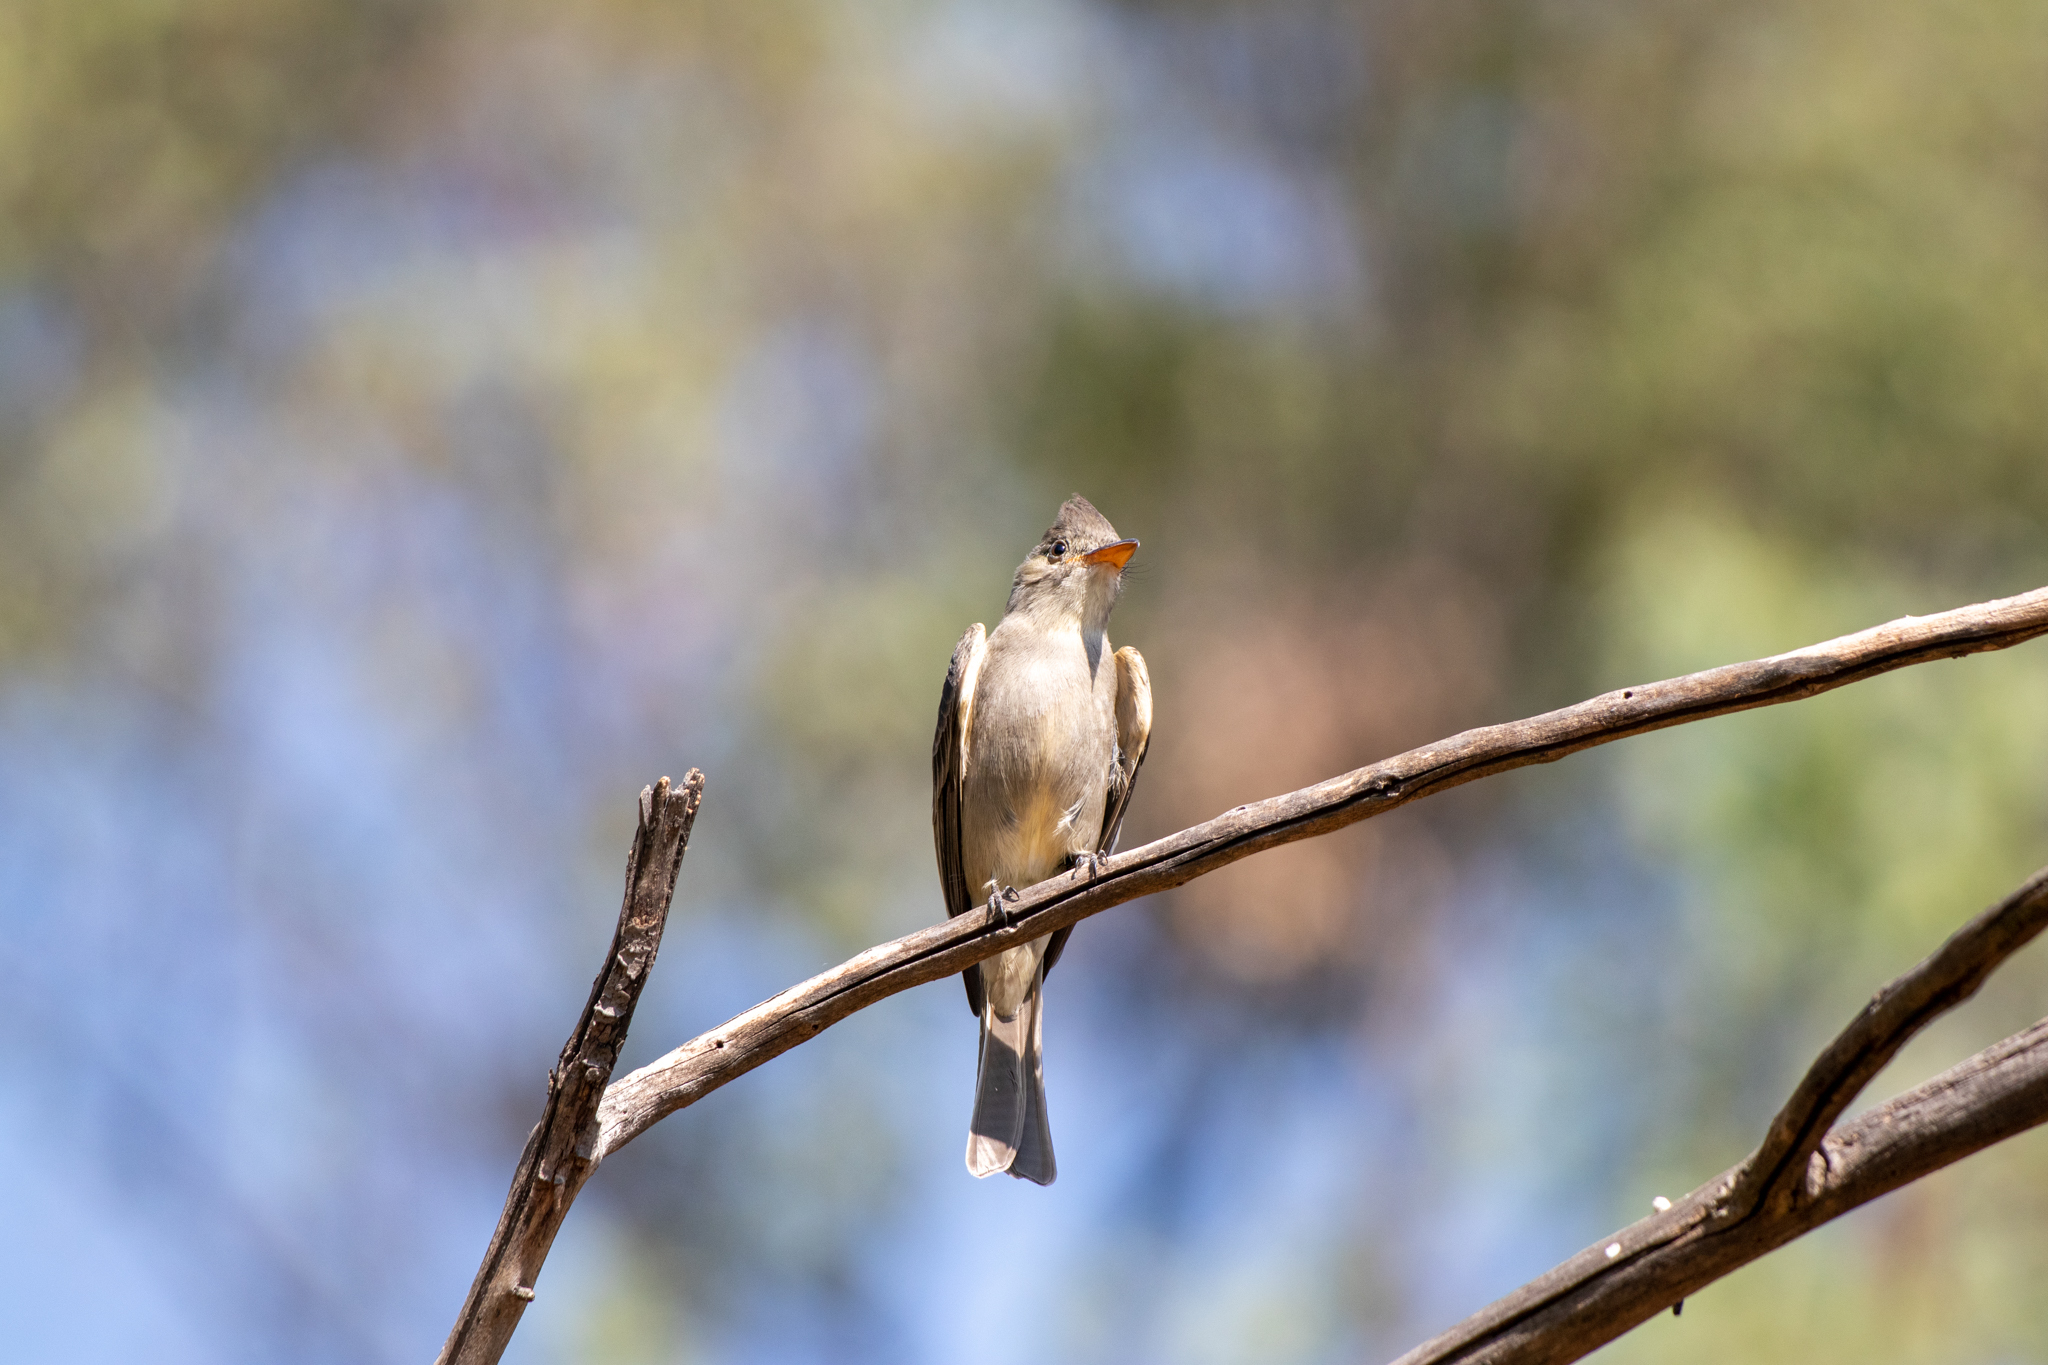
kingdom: Animalia
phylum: Chordata
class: Aves
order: Passeriformes
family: Tyrannidae
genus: Contopus
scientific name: Contopus pertinax
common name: Greater pewee
